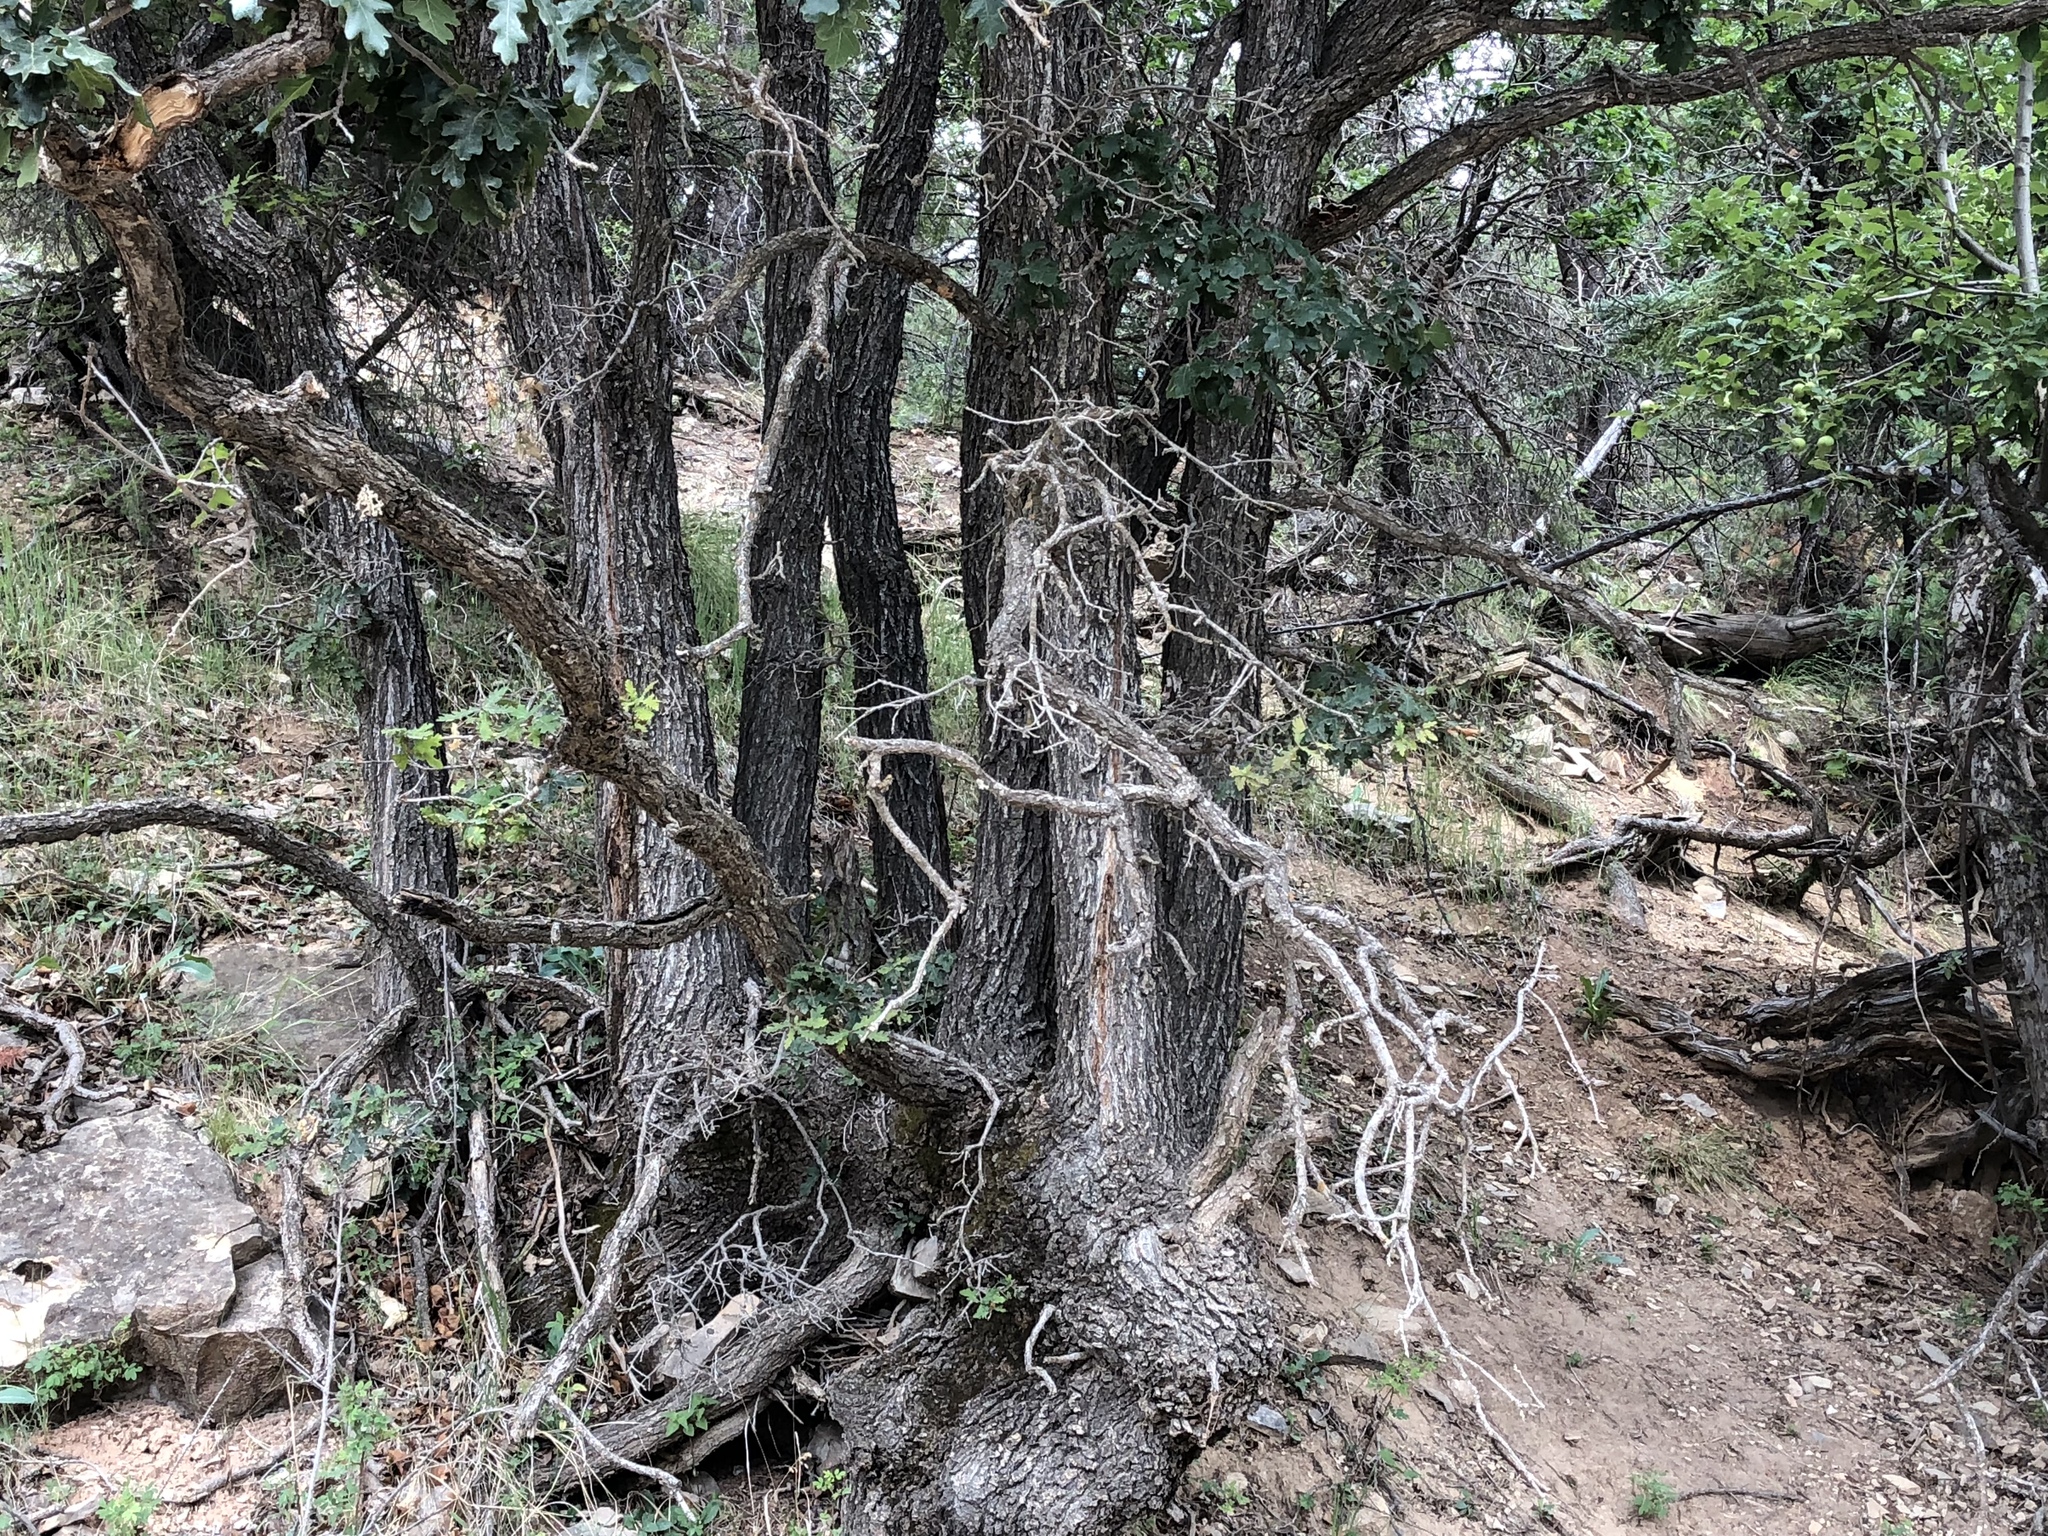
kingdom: Plantae
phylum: Tracheophyta
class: Magnoliopsida
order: Fagales
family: Fagaceae
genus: Quercus
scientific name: Quercus gambelii
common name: Gambel oak
